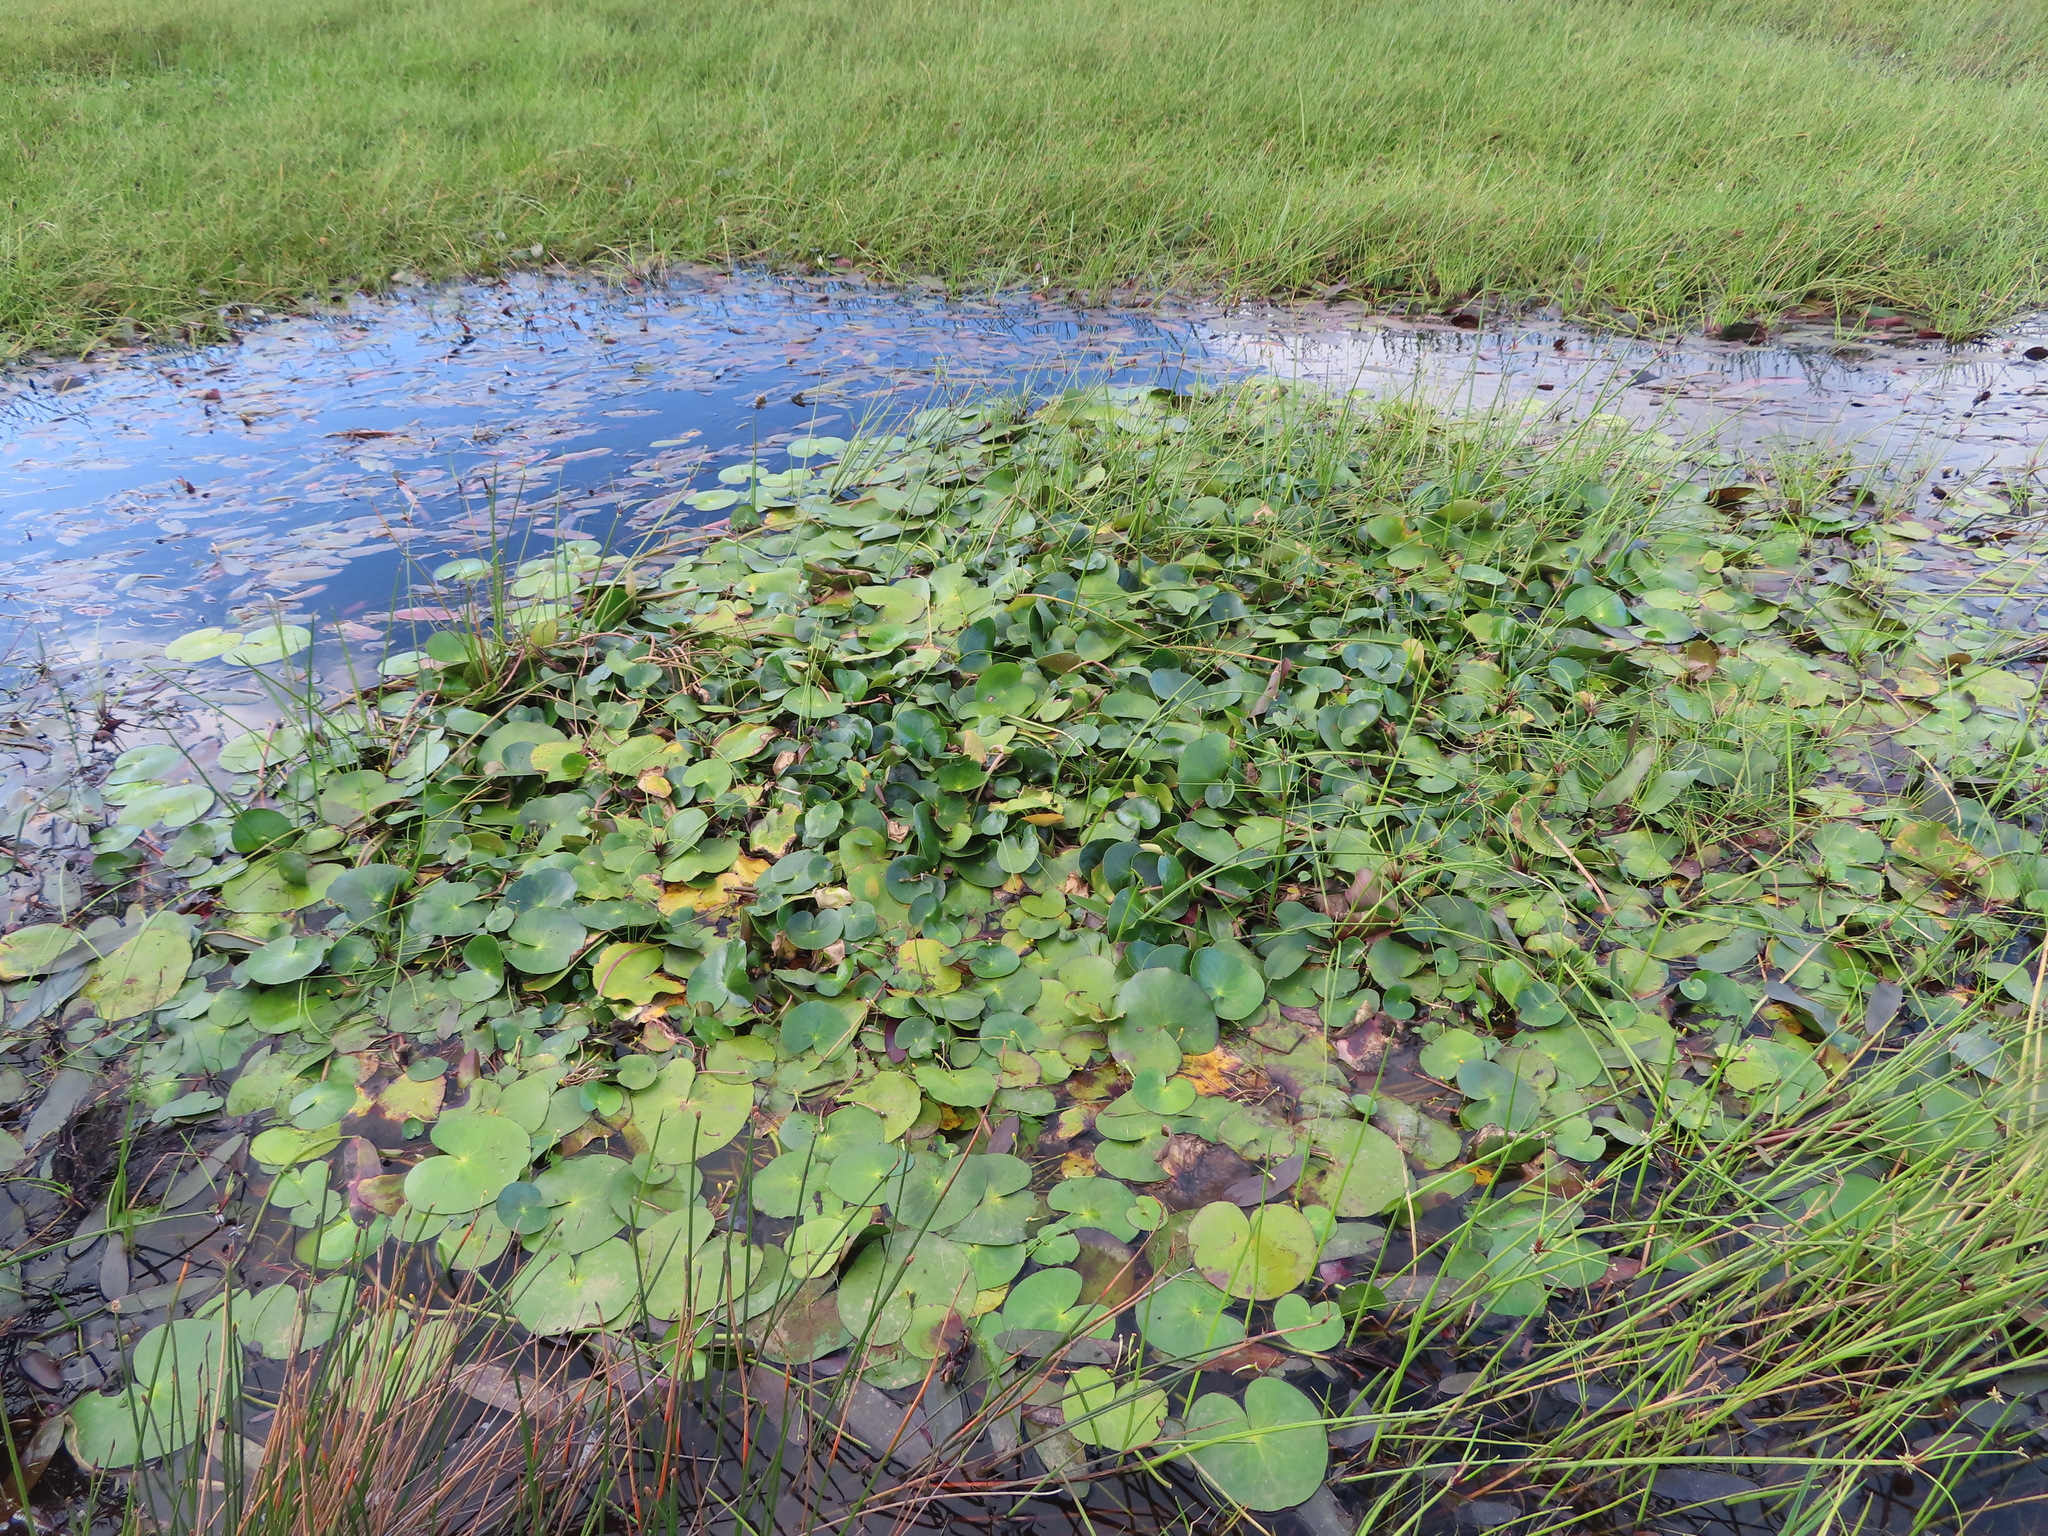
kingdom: Plantae
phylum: Tracheophyta
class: Magnoliopsida
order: Asterales
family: Menyanthaceae
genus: Nymphoides
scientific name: Nymphoides thunbergiana
